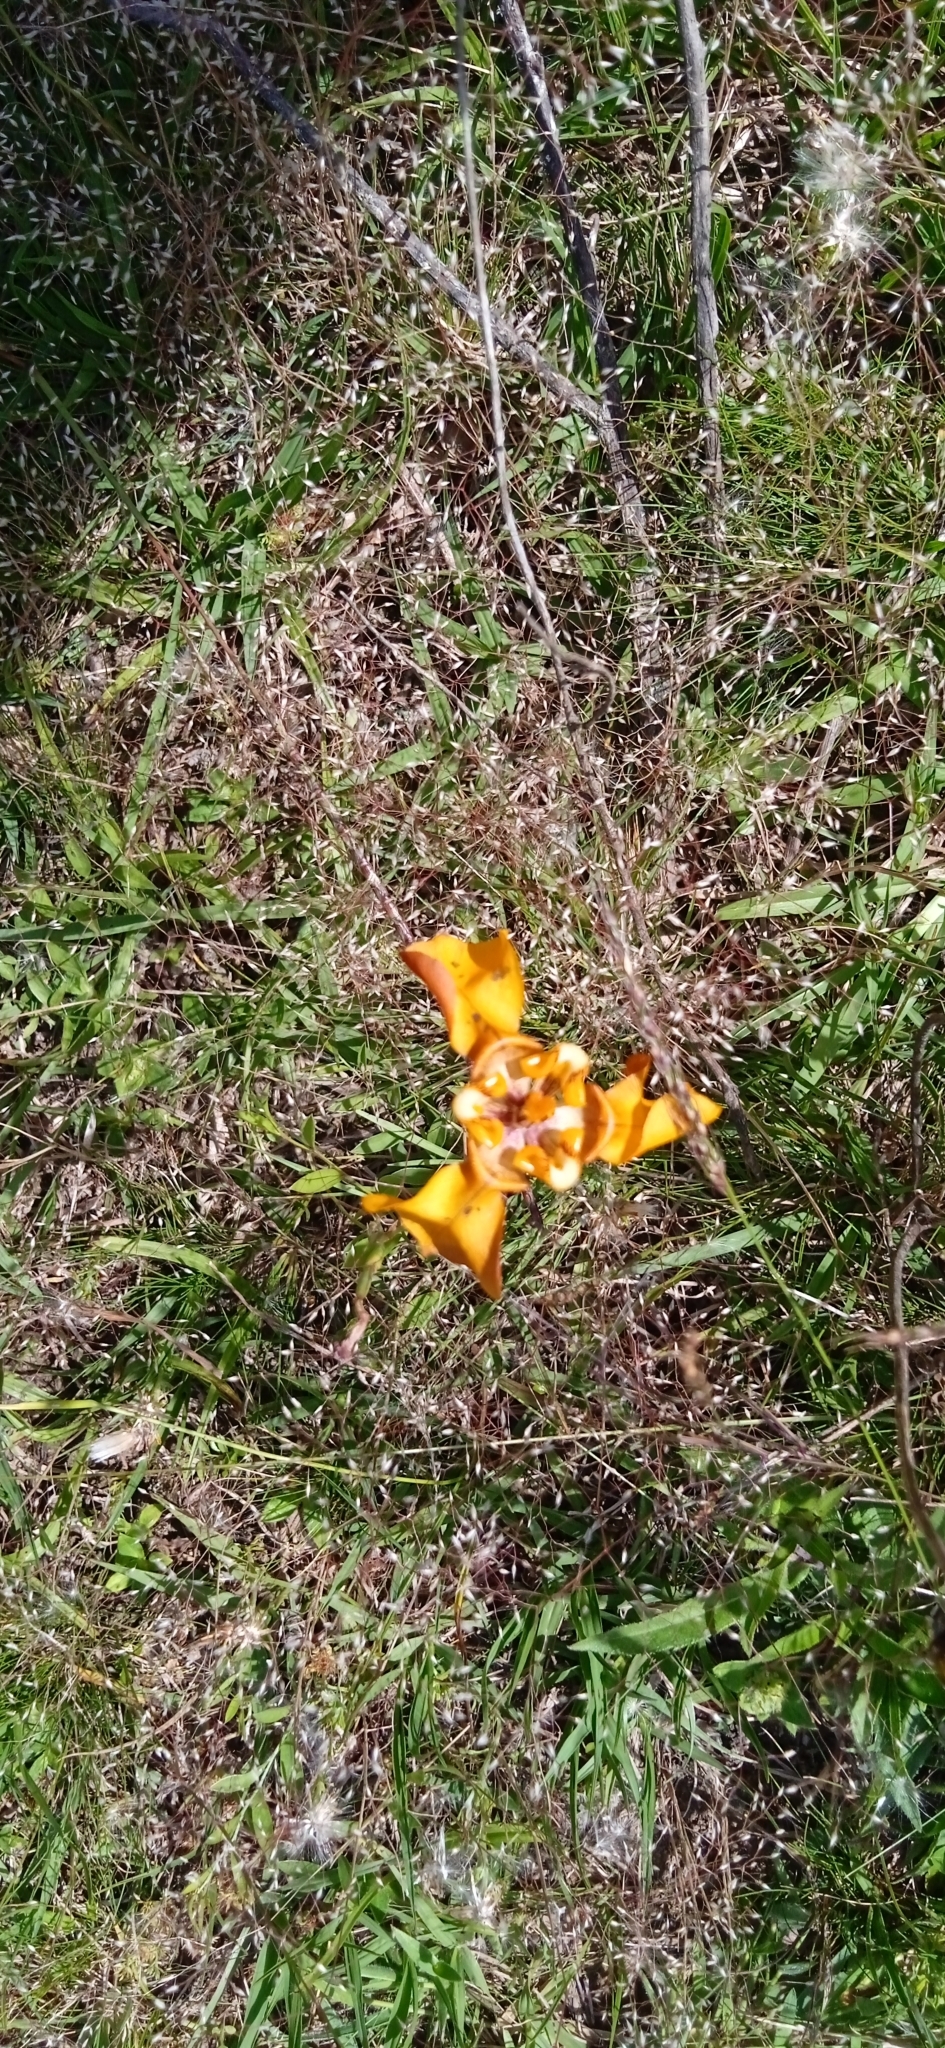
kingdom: Plantae
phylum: Tracheophyta
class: Liliopsida
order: Asparagales
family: Iridaceae
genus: Cypella
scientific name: Cypella fucata
